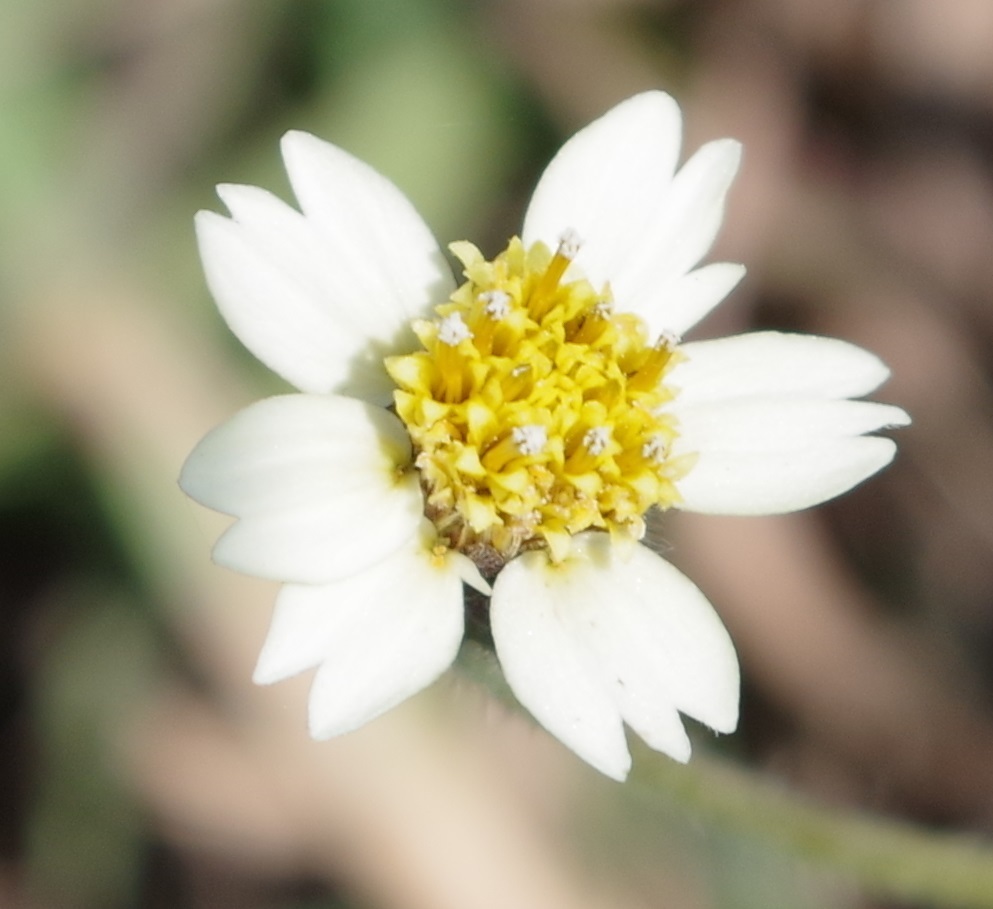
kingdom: Plantae
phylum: Tracheophyta
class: Magnoliopsida
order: Asterales
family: Asteraceae
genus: Tridax
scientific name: Tridax procumbens
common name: Coatbuttons
